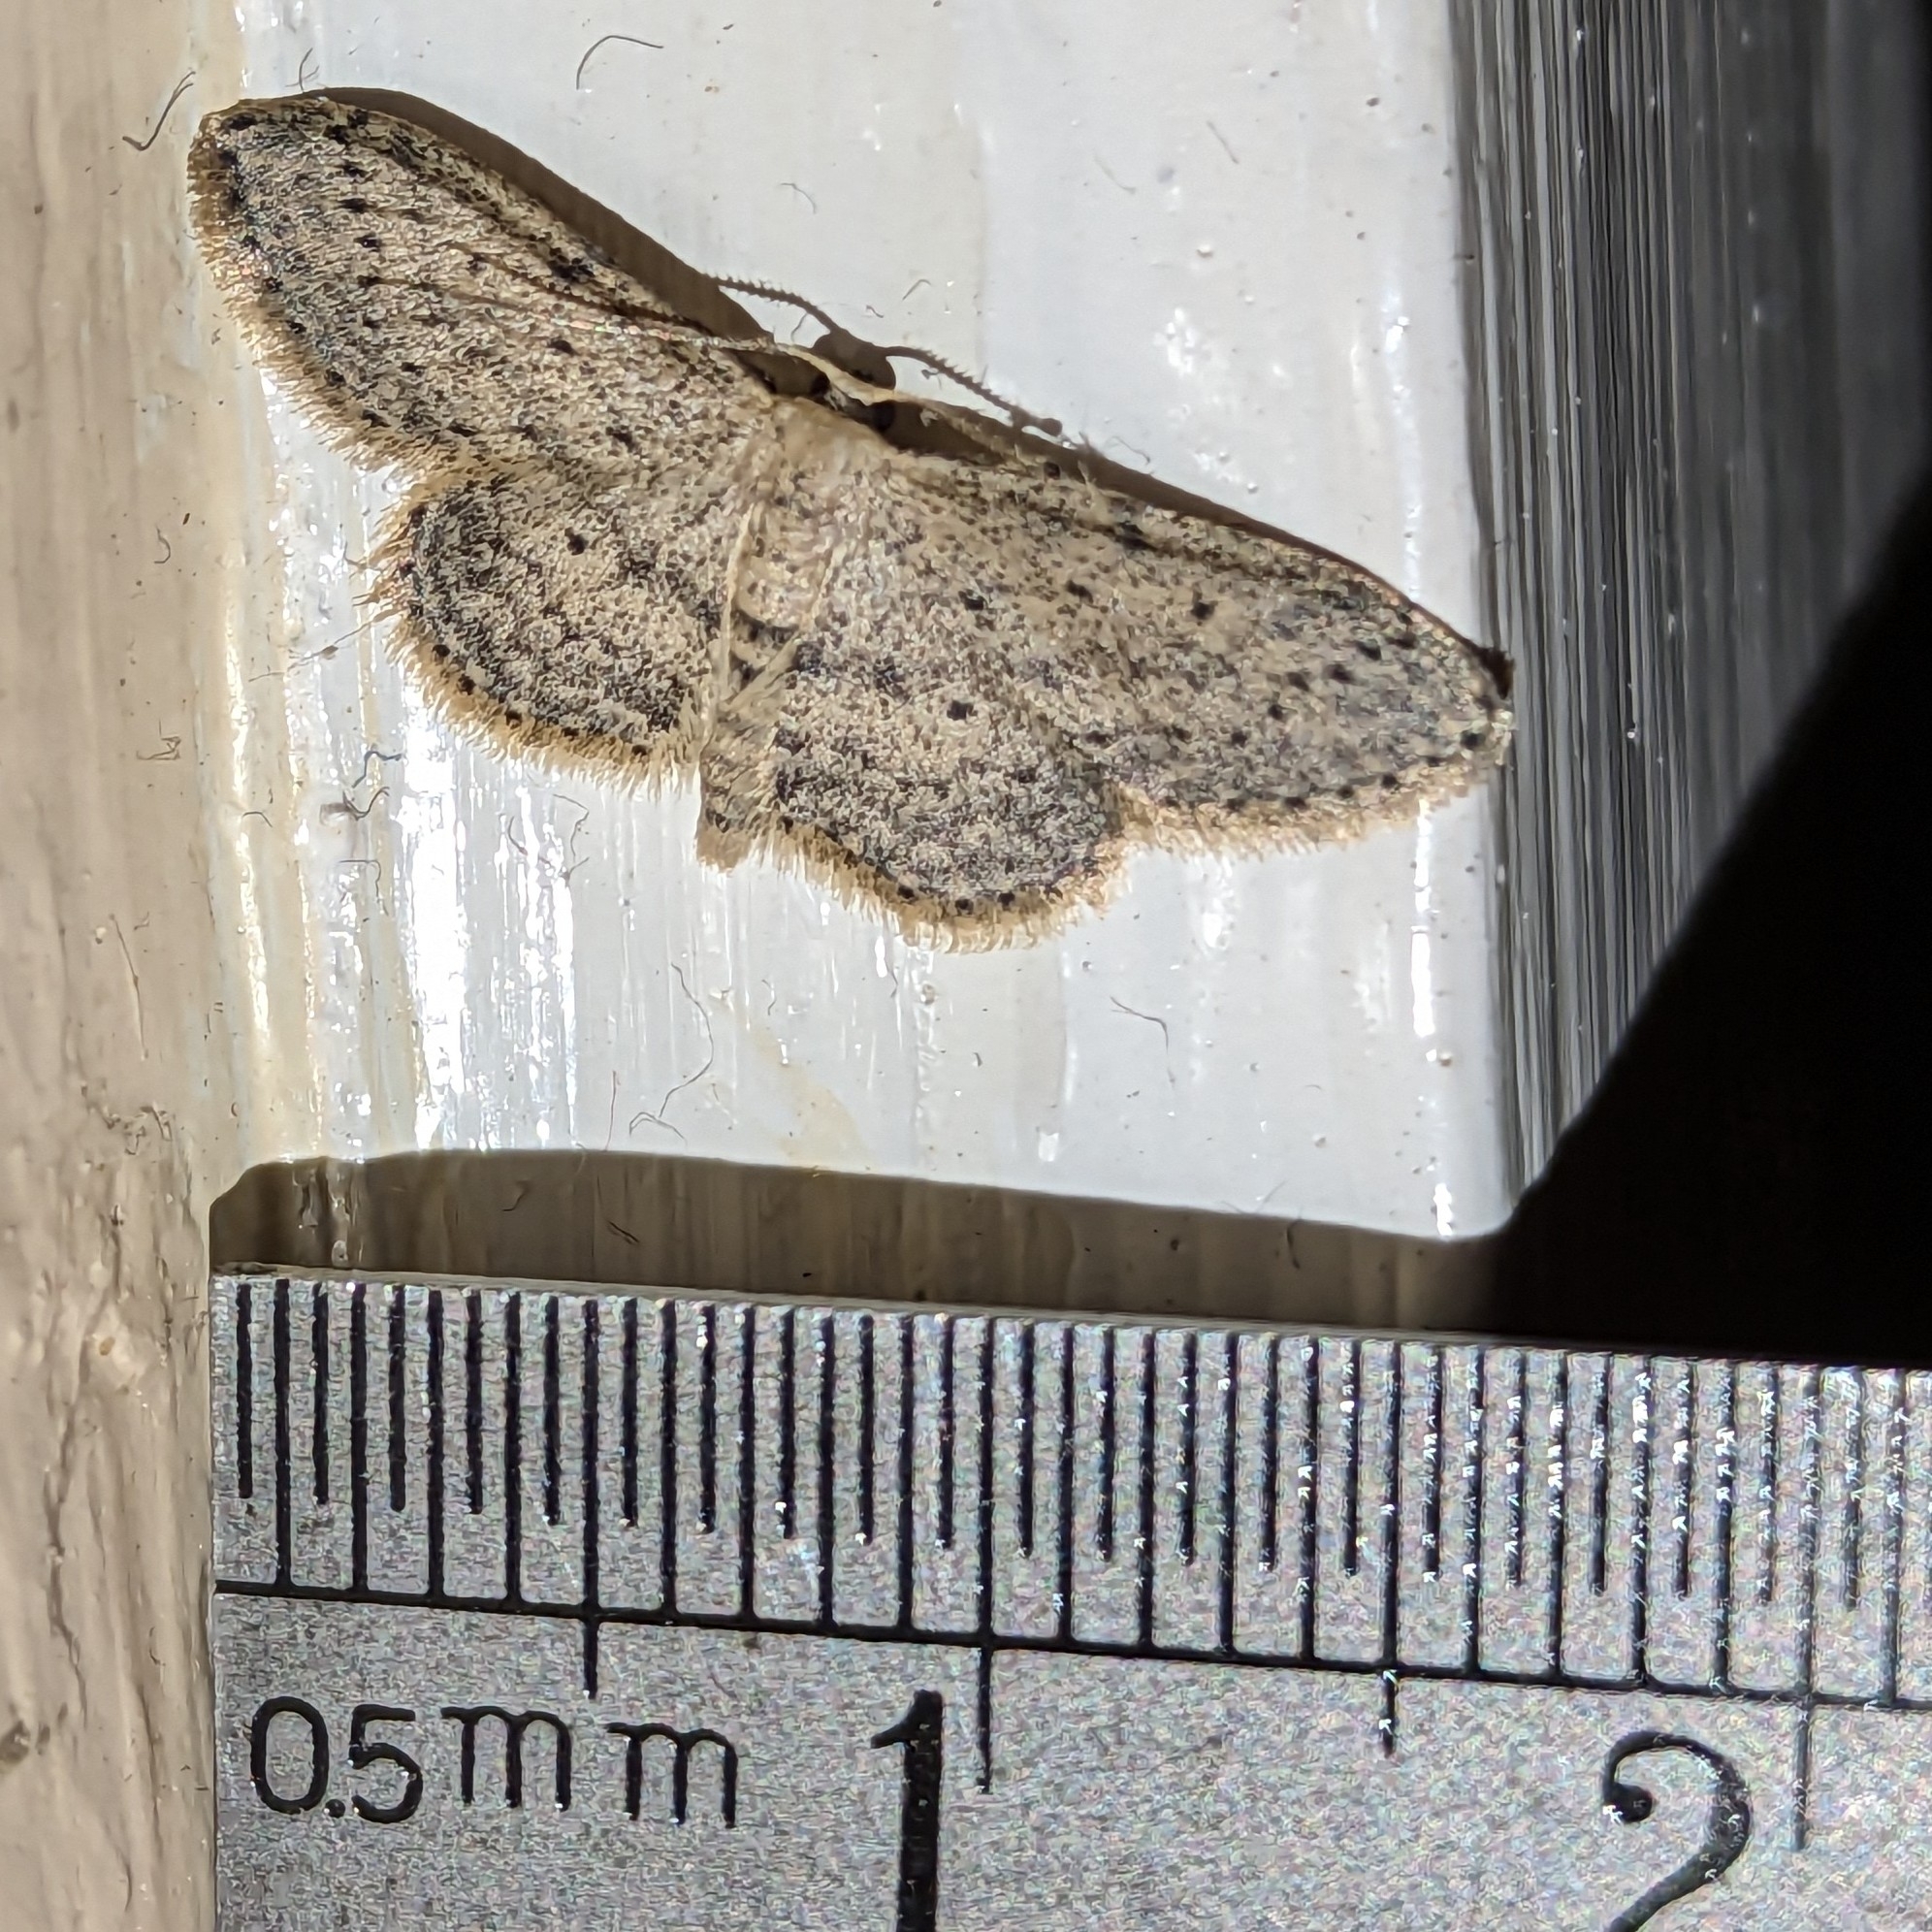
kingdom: Animalia
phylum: Arthropoda
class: Insecta
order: Lepidoptera
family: Geometridae
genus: Idaea
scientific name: Idaea seriata
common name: Small dusty wave
